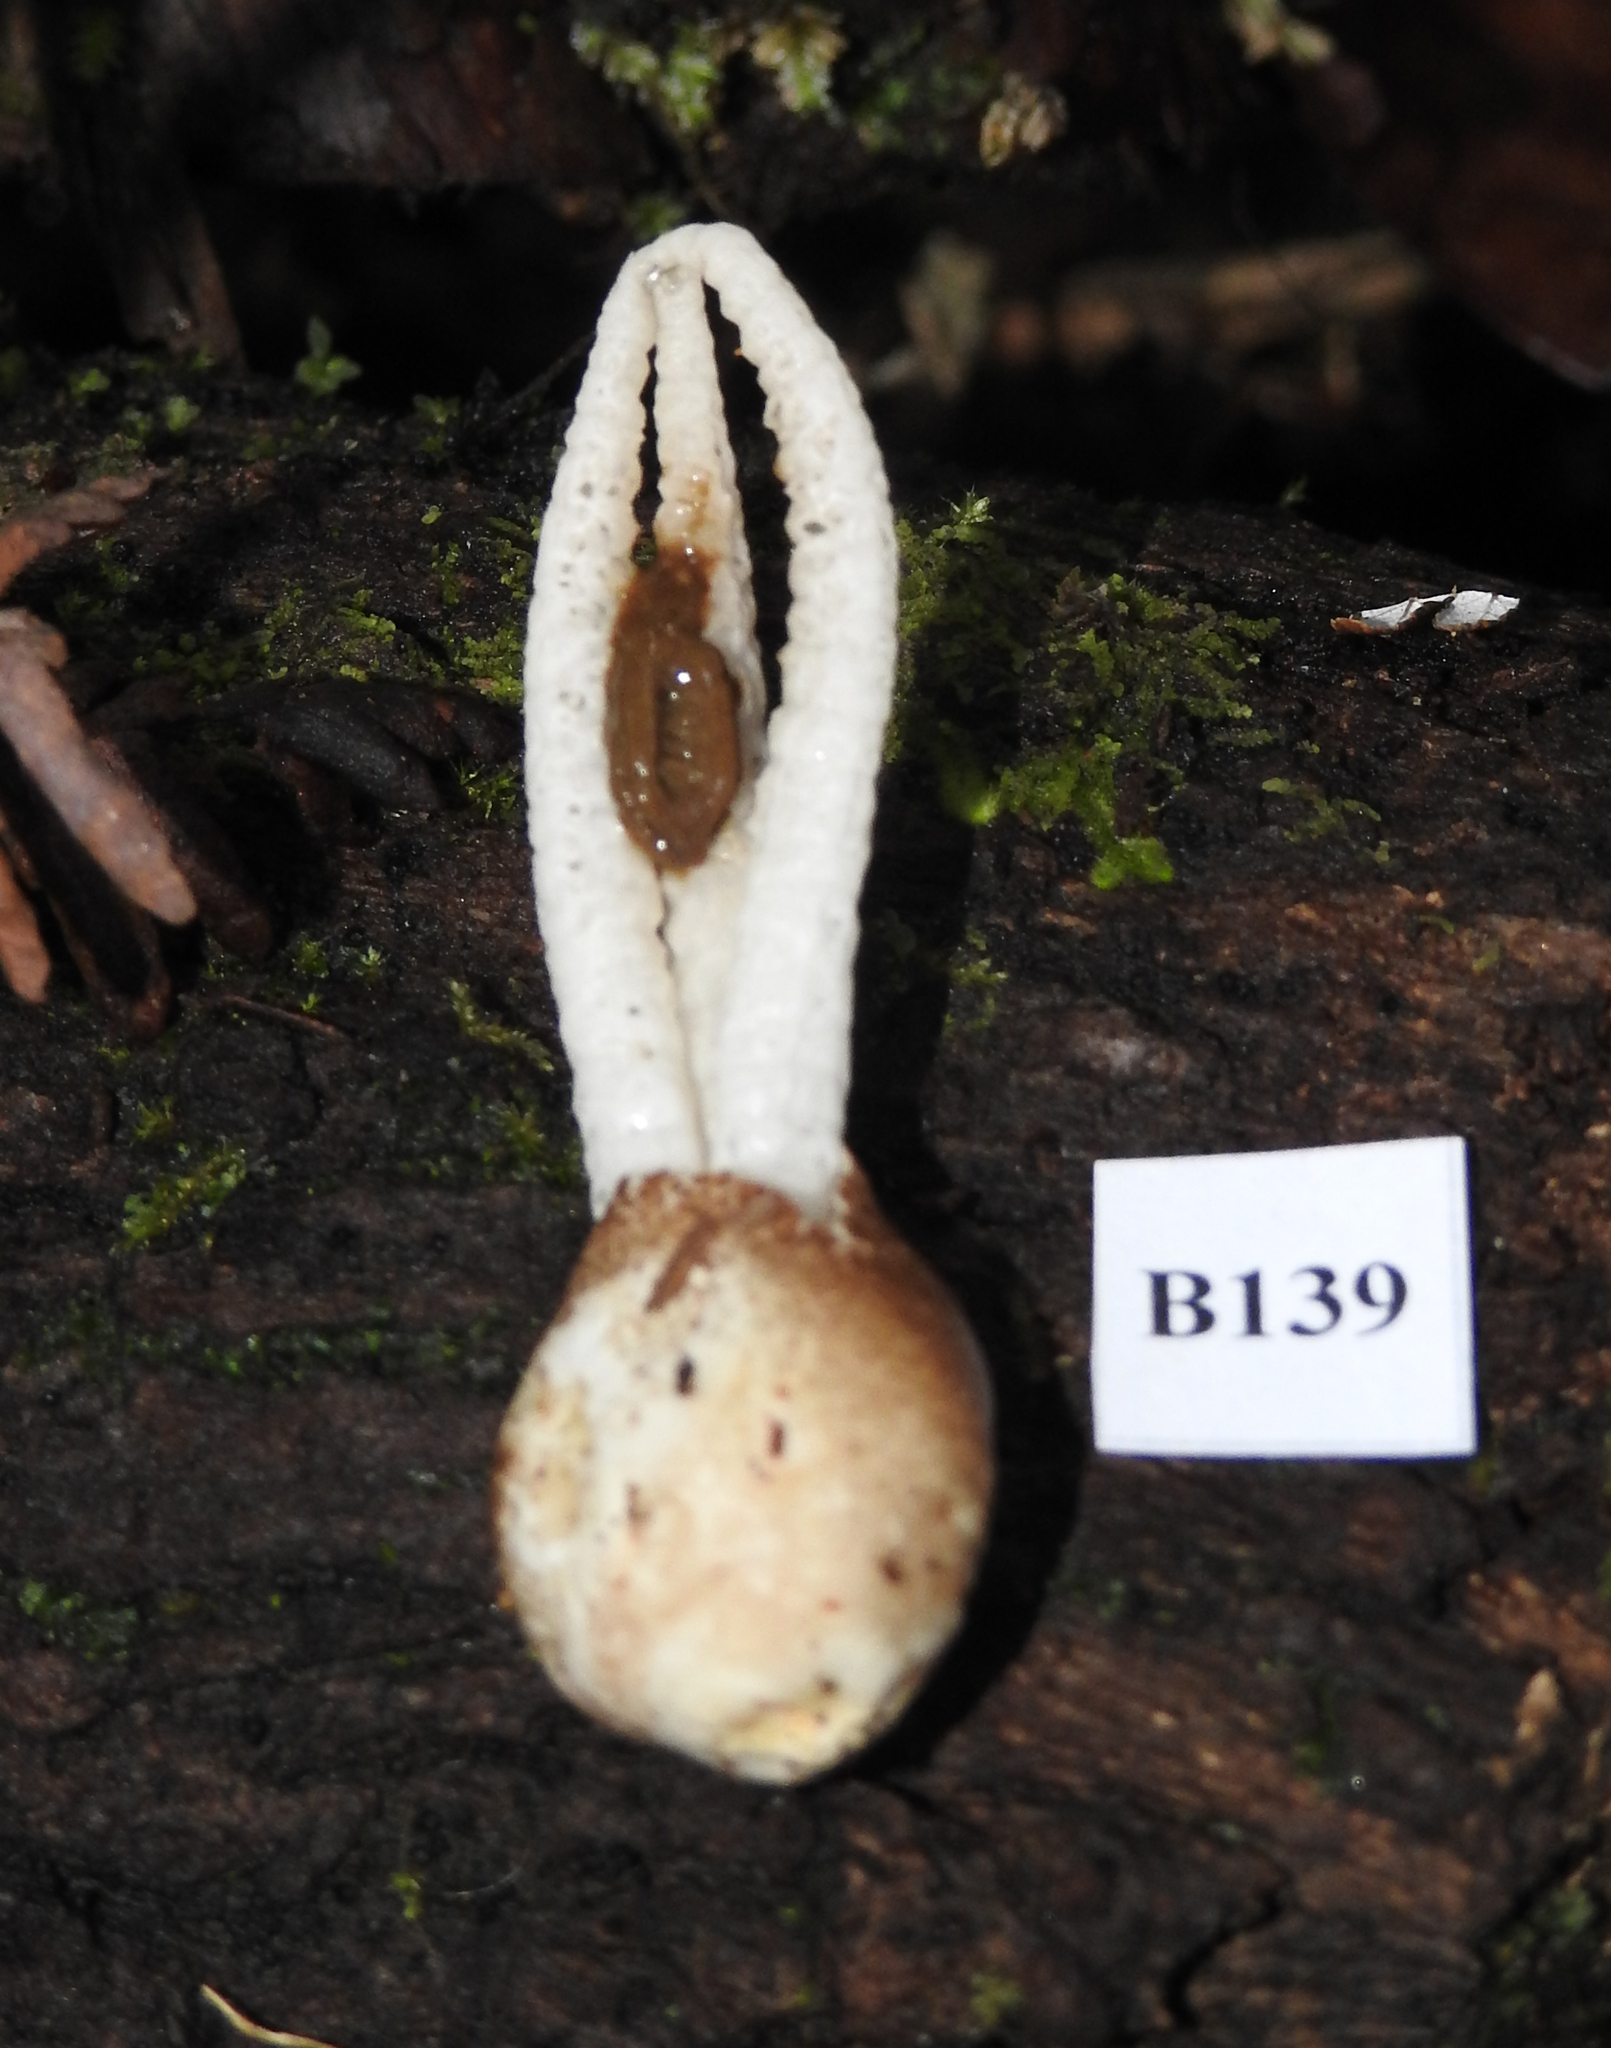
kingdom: Fungi
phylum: Basidiomycota
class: Agaricomycetes
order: Phallales
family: Phallaceae
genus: Pseudocolus
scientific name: Pseudocolus garciae
